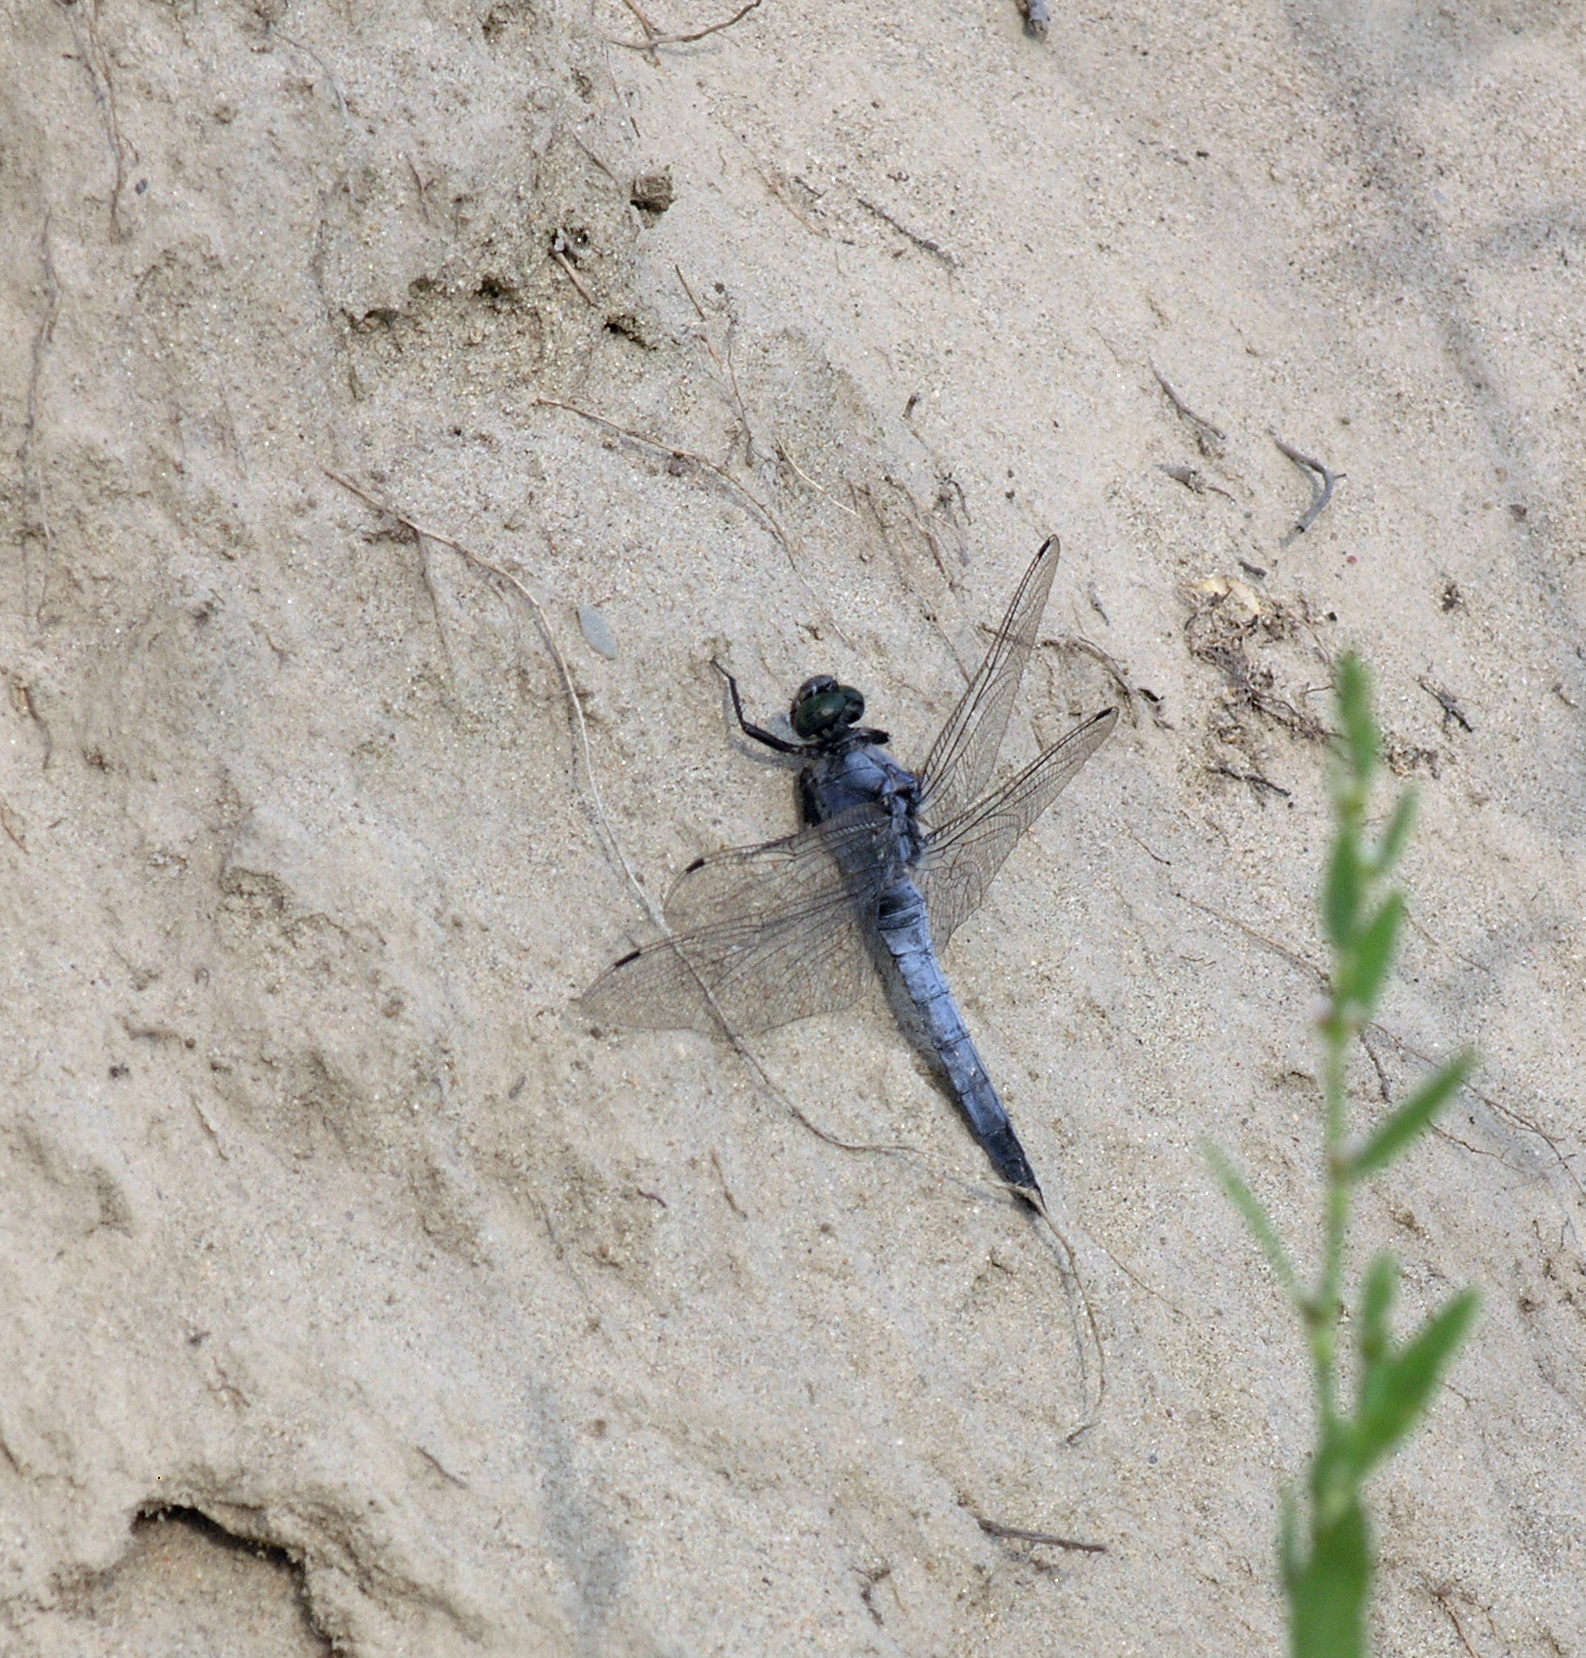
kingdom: Animalia
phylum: Arthropoda
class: Insecta
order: Odonata
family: Libellulidae
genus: Orthetrum
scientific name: Orthetrum cancellatum
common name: Black-tailed skimmer
